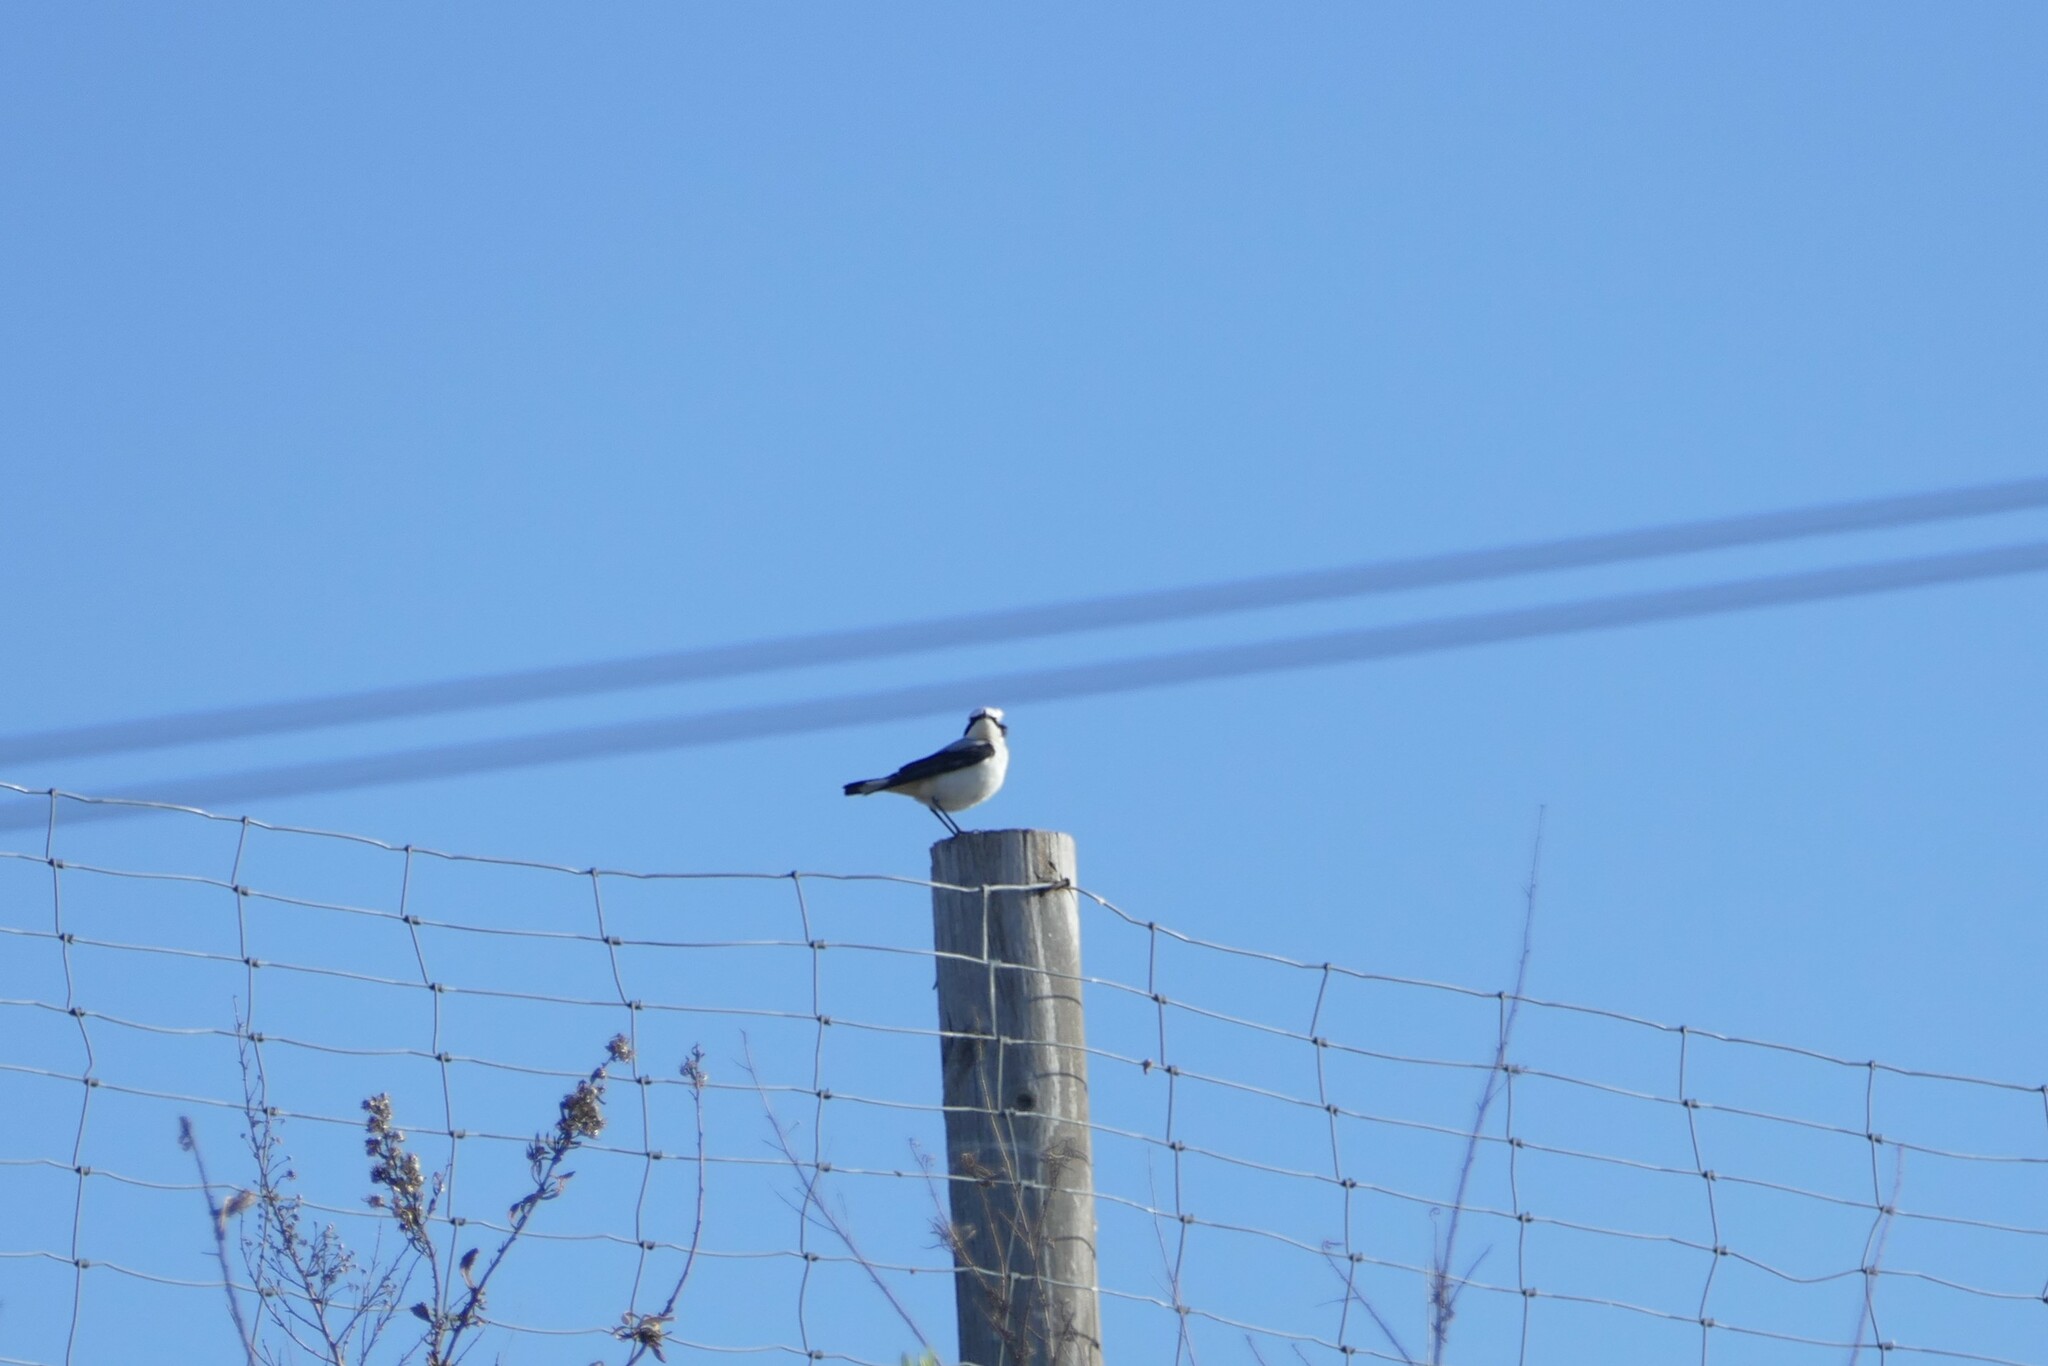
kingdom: Animalia
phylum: Chordata
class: Aves
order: Passeriformes
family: Muscicapidae
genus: Oenanthe
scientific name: Oenanthe oenanthe
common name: Northern wheatear
